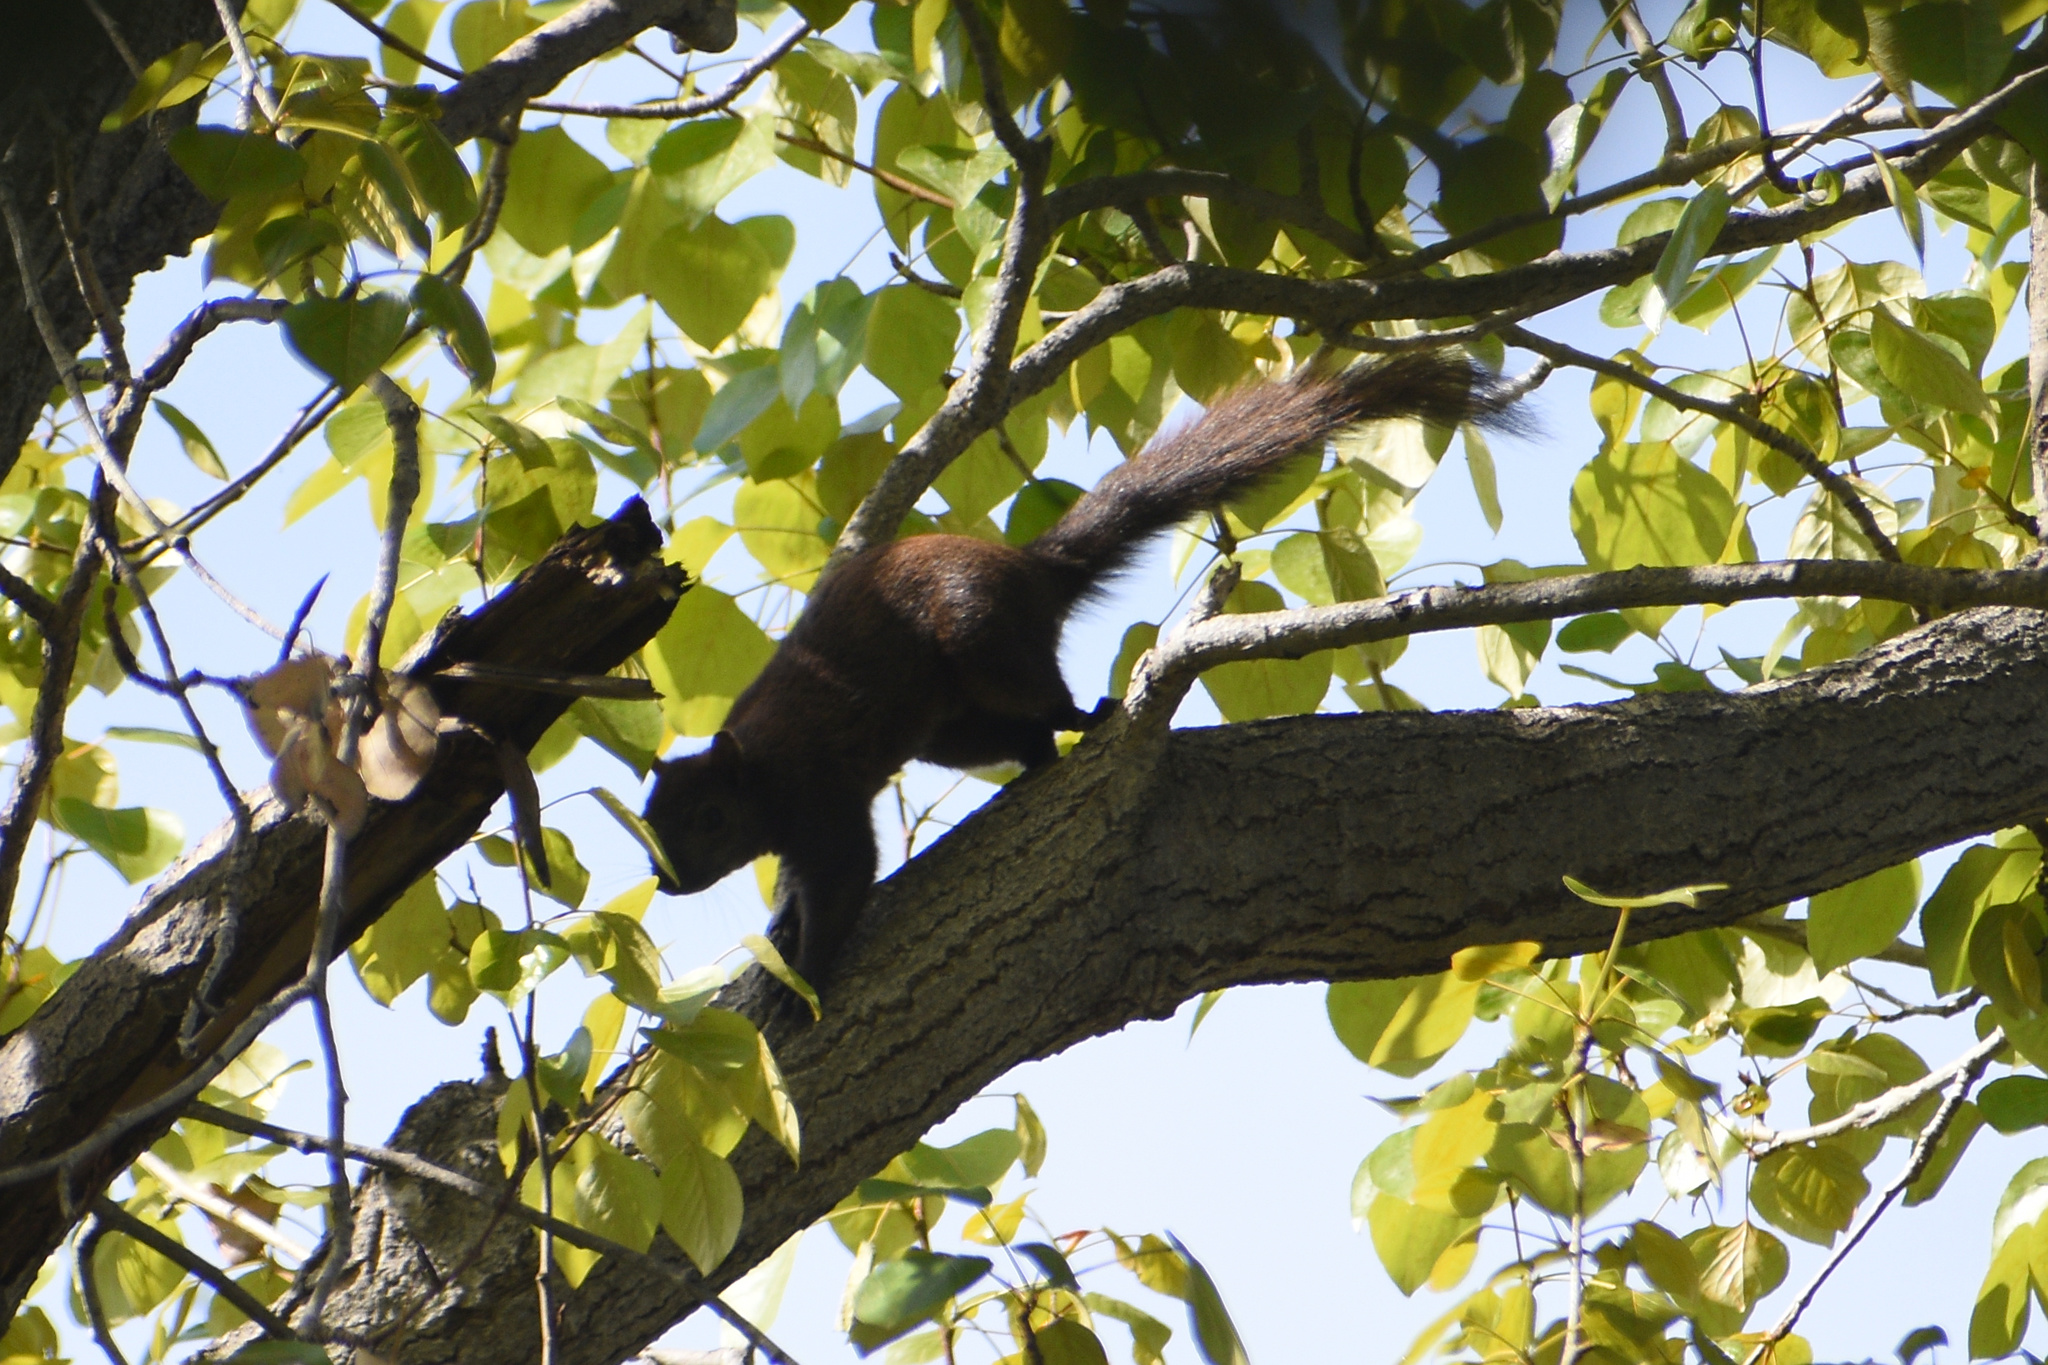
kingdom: Animalia
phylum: Chordata
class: Mammalia
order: Rodentia
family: Sciuridae
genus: Sciurus
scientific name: Sciurus carolinensis
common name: Eastern gray squirrel
